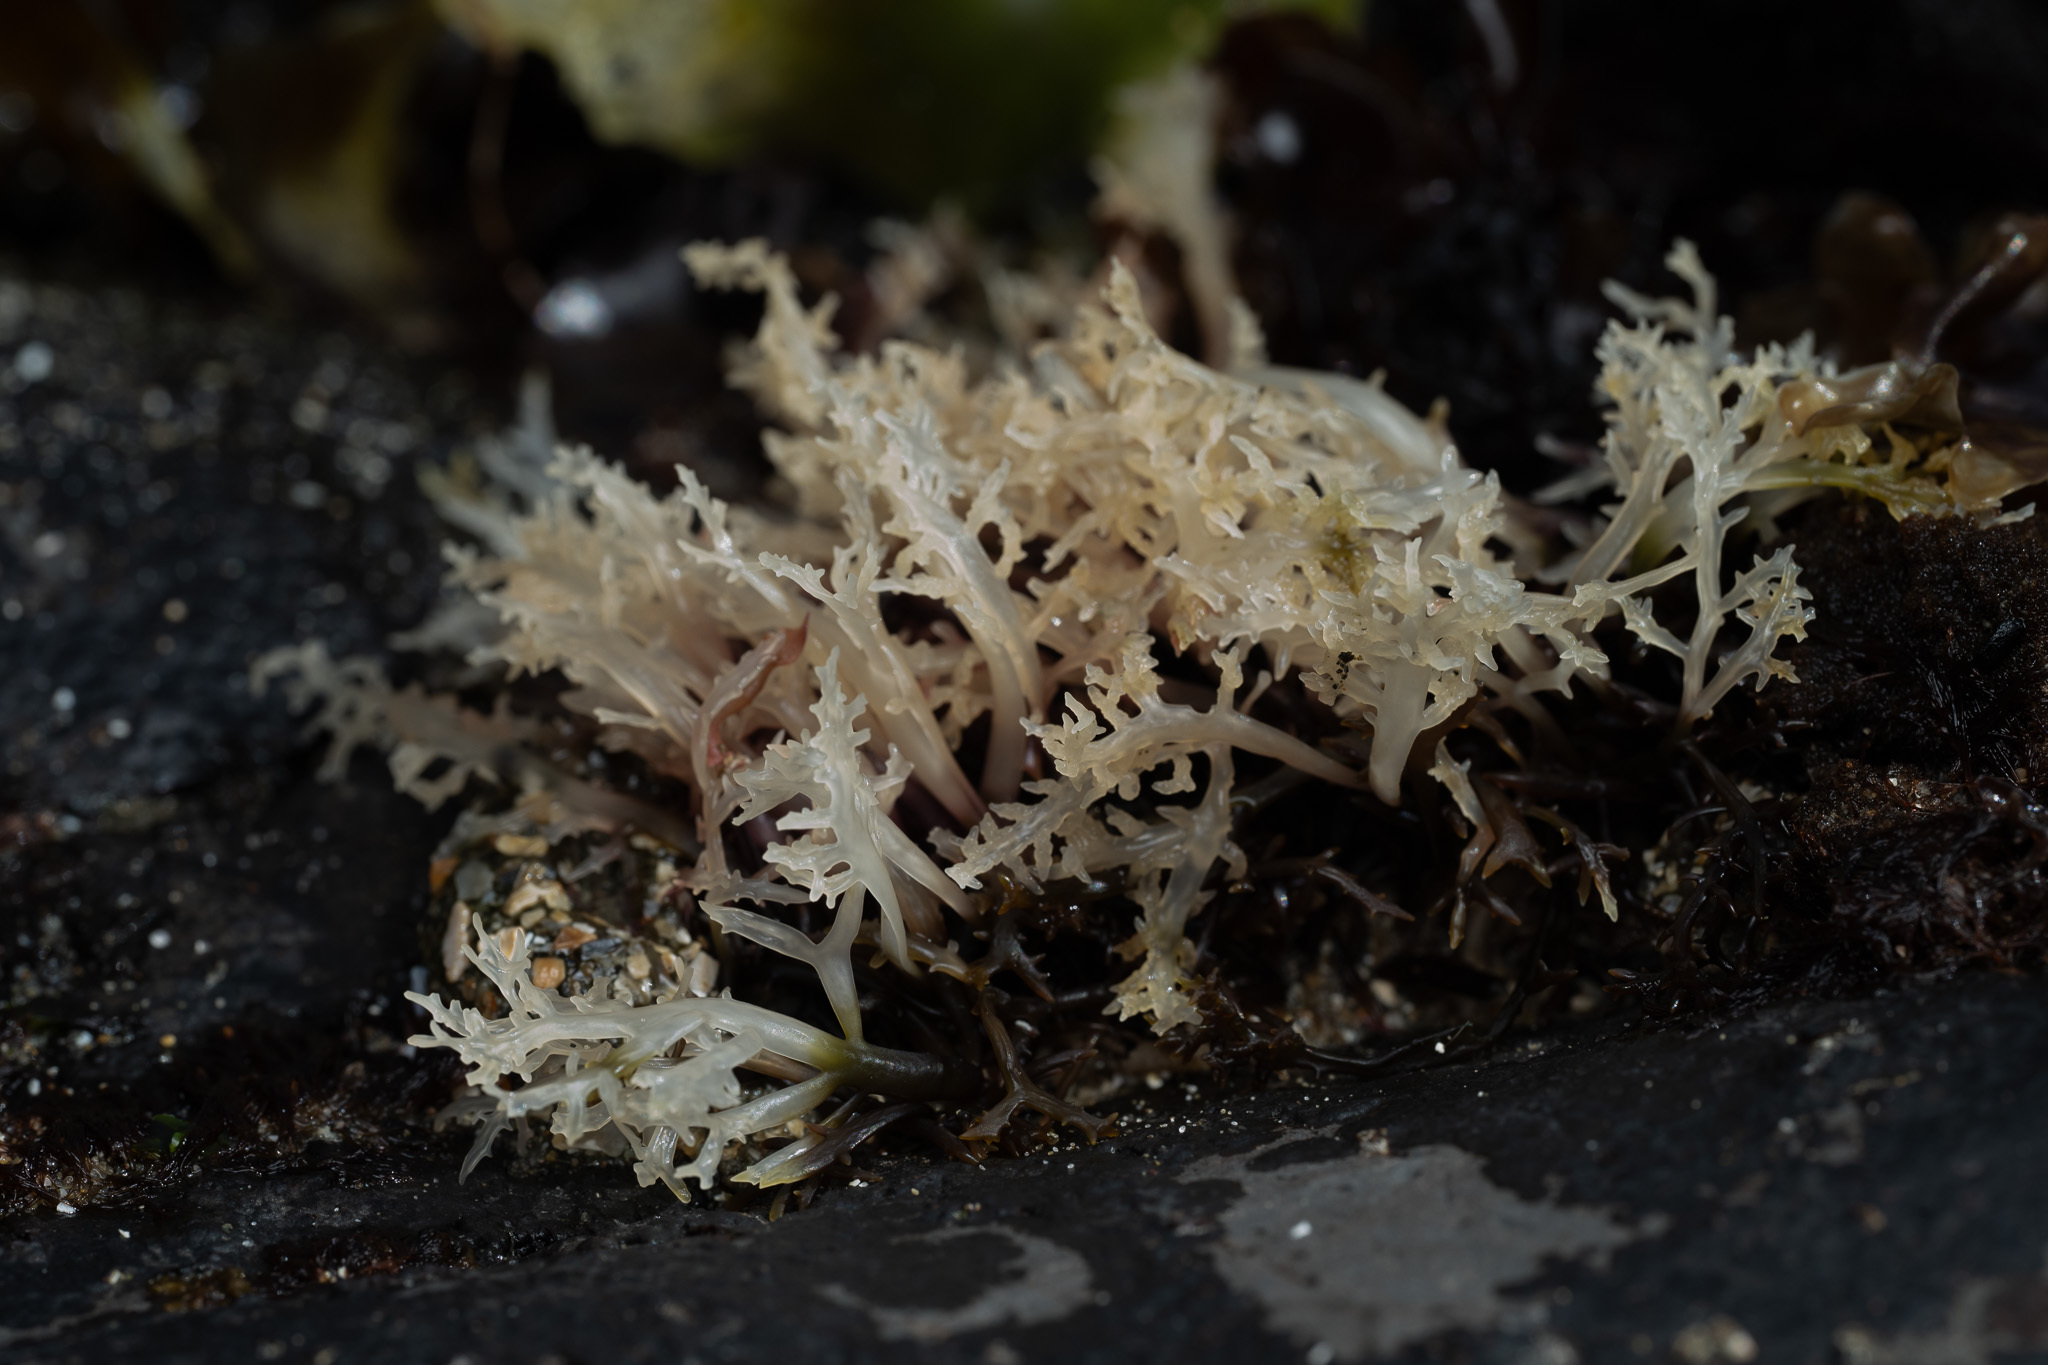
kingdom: Plantae
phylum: Rhodophyta
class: Florideophyceae
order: Gigartinales
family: Gigartinaceae
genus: Chondracanthus
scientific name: Chondracanthus canaliculatus
